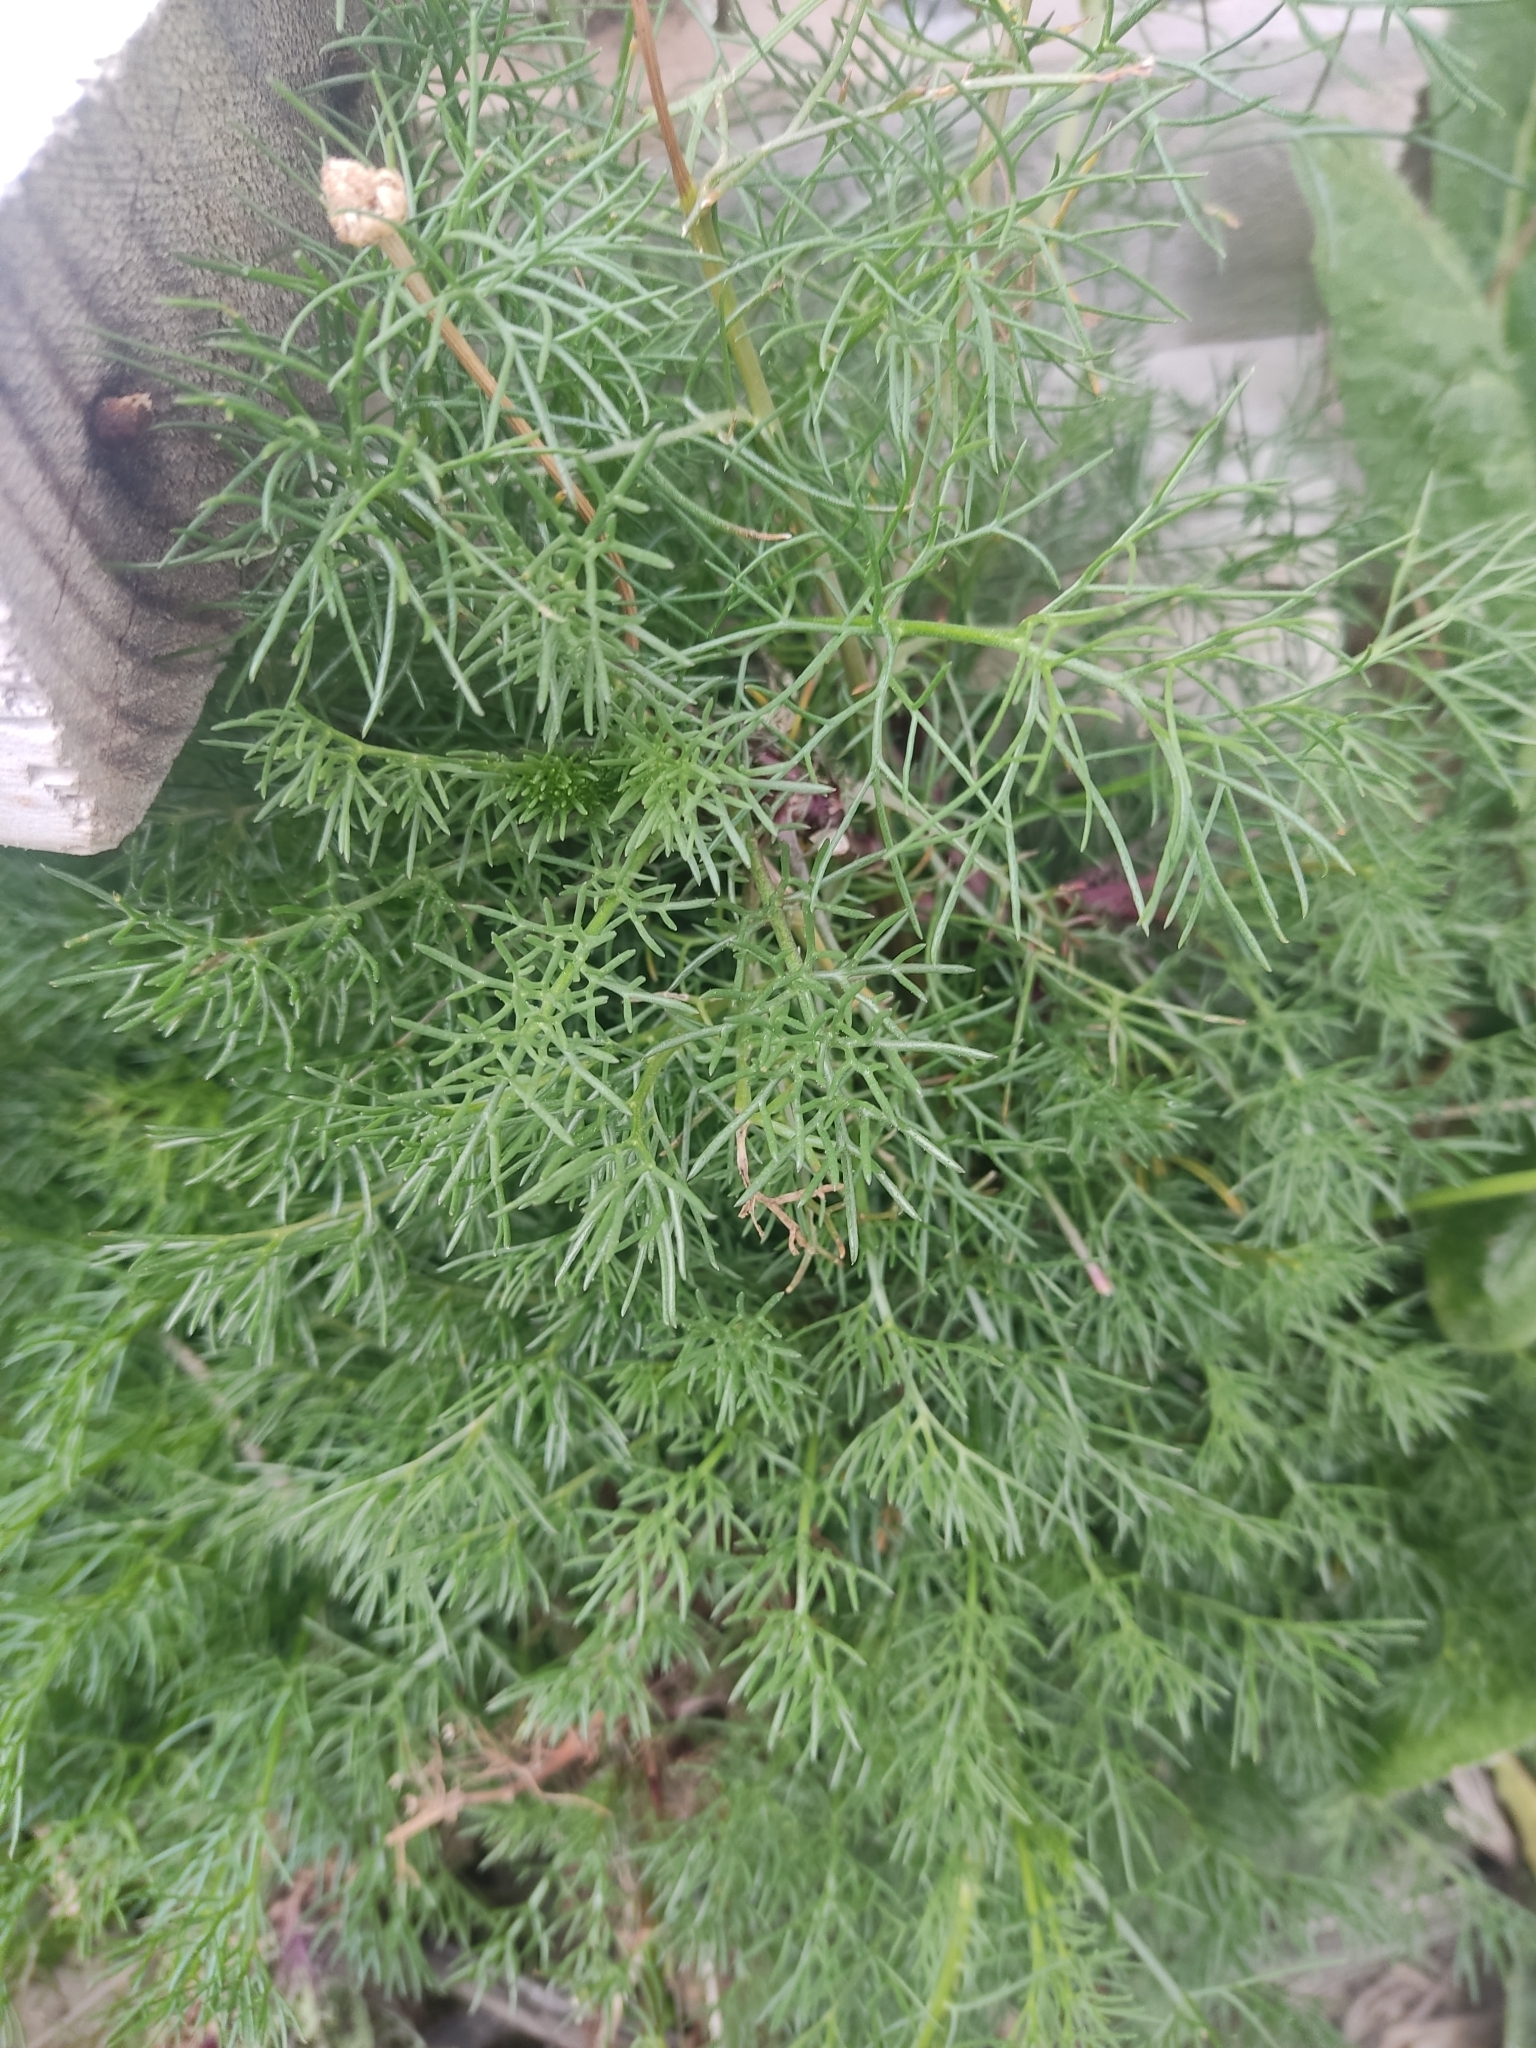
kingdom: Plantae
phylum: Tracheophyta
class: Magnoliopsida
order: Asterales
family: Asteraceae
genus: Tripleurospermum
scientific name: Tripleurospermum inodorum
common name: Scentless mayweed
